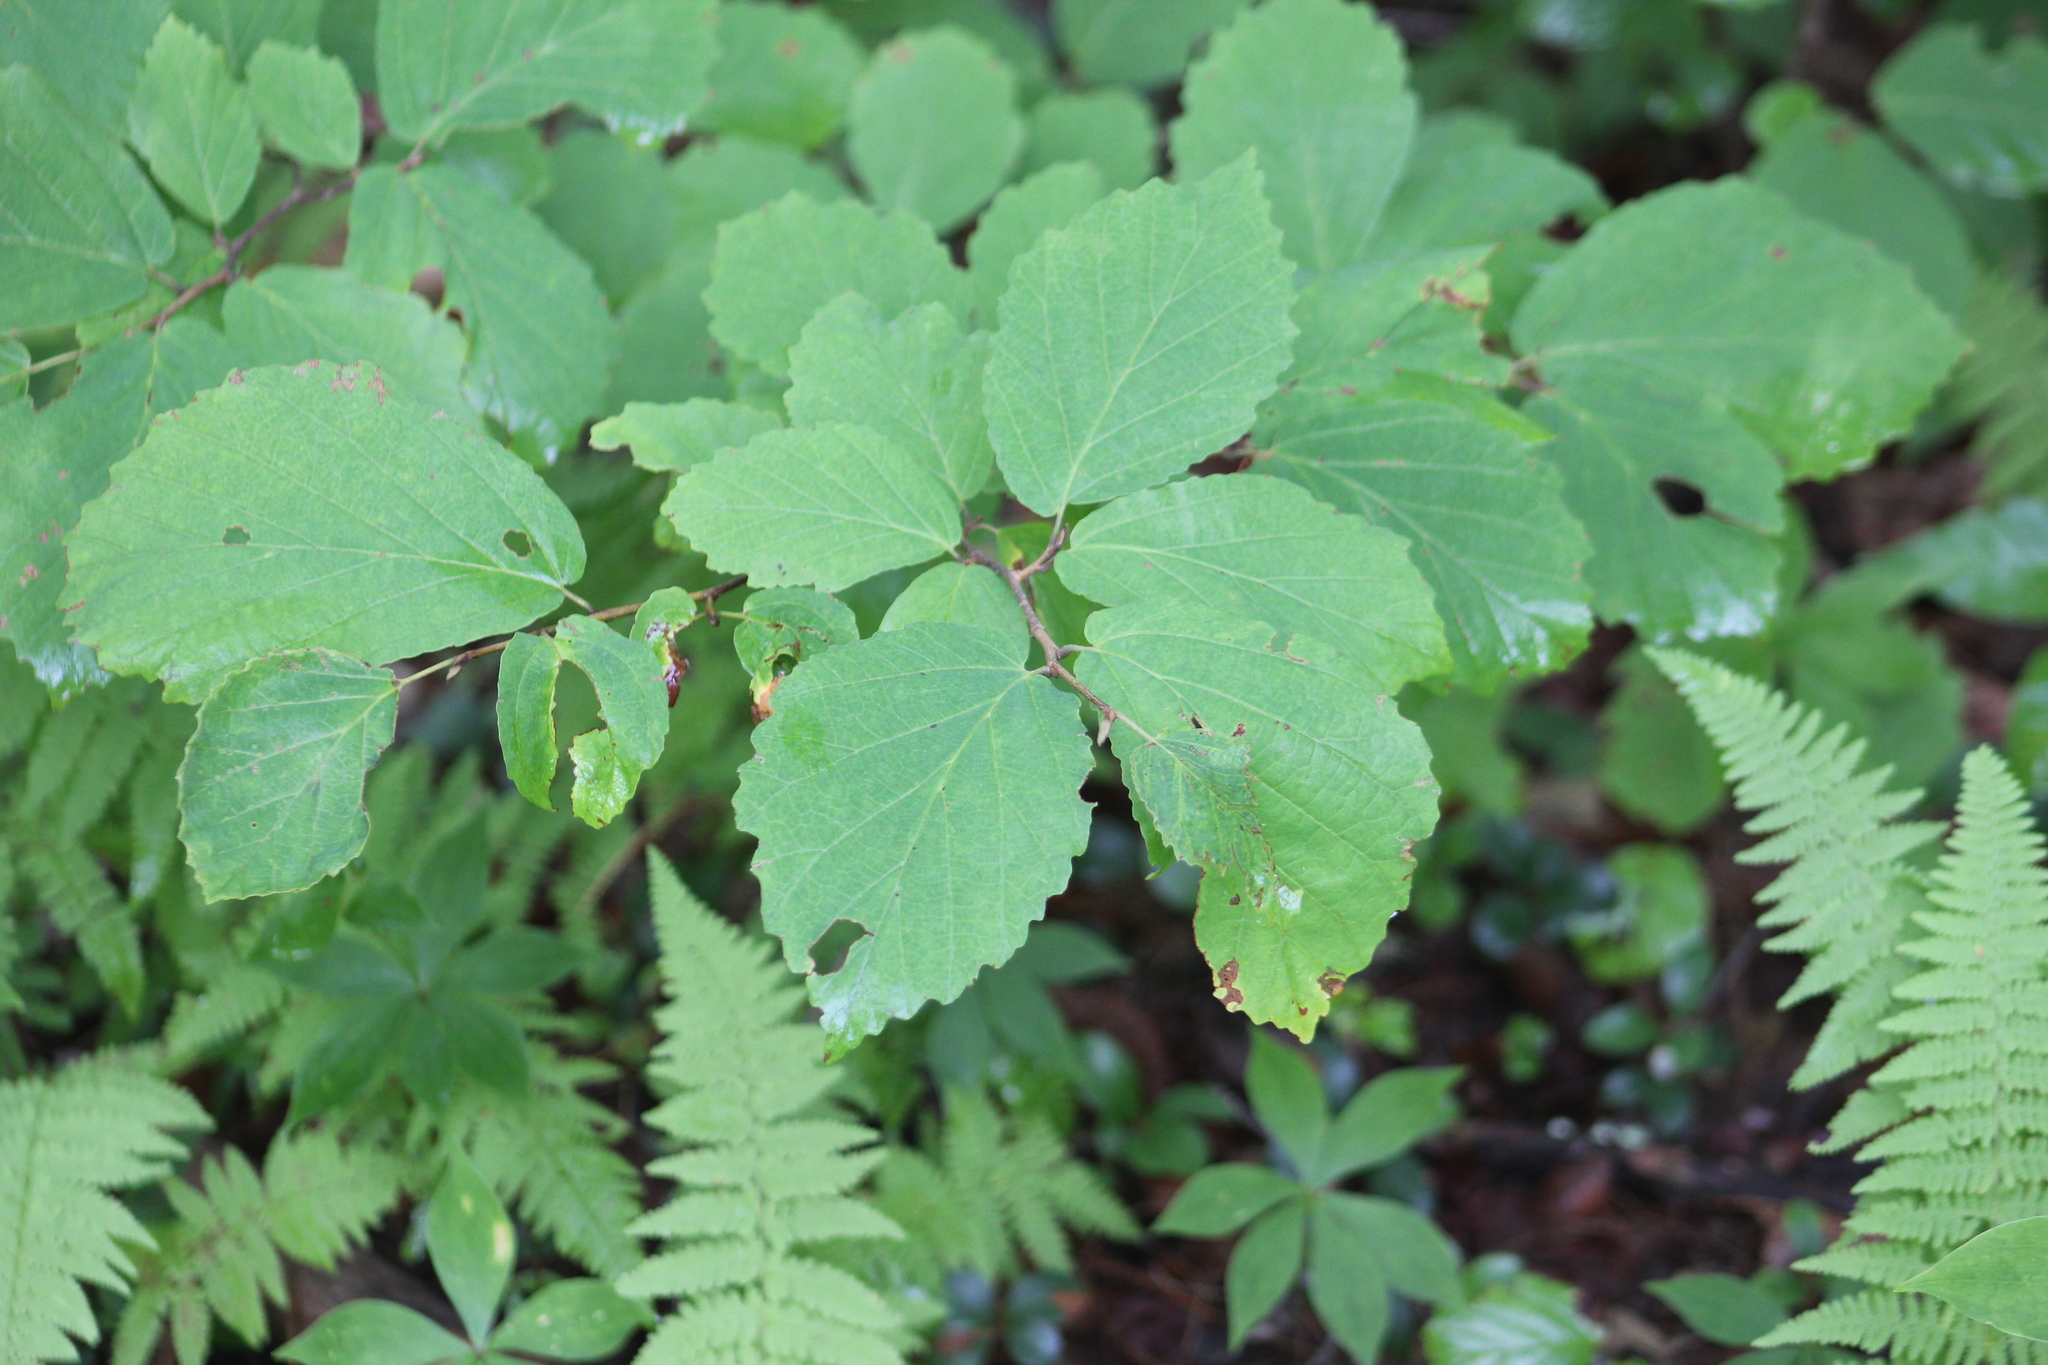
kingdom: Plantae
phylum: Tracheophyta
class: Magnoliopsida
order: Saxifragales
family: Hamamelidaceae
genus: Hamamelis
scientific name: Hamamelis virginiana
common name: Witch-hazel
